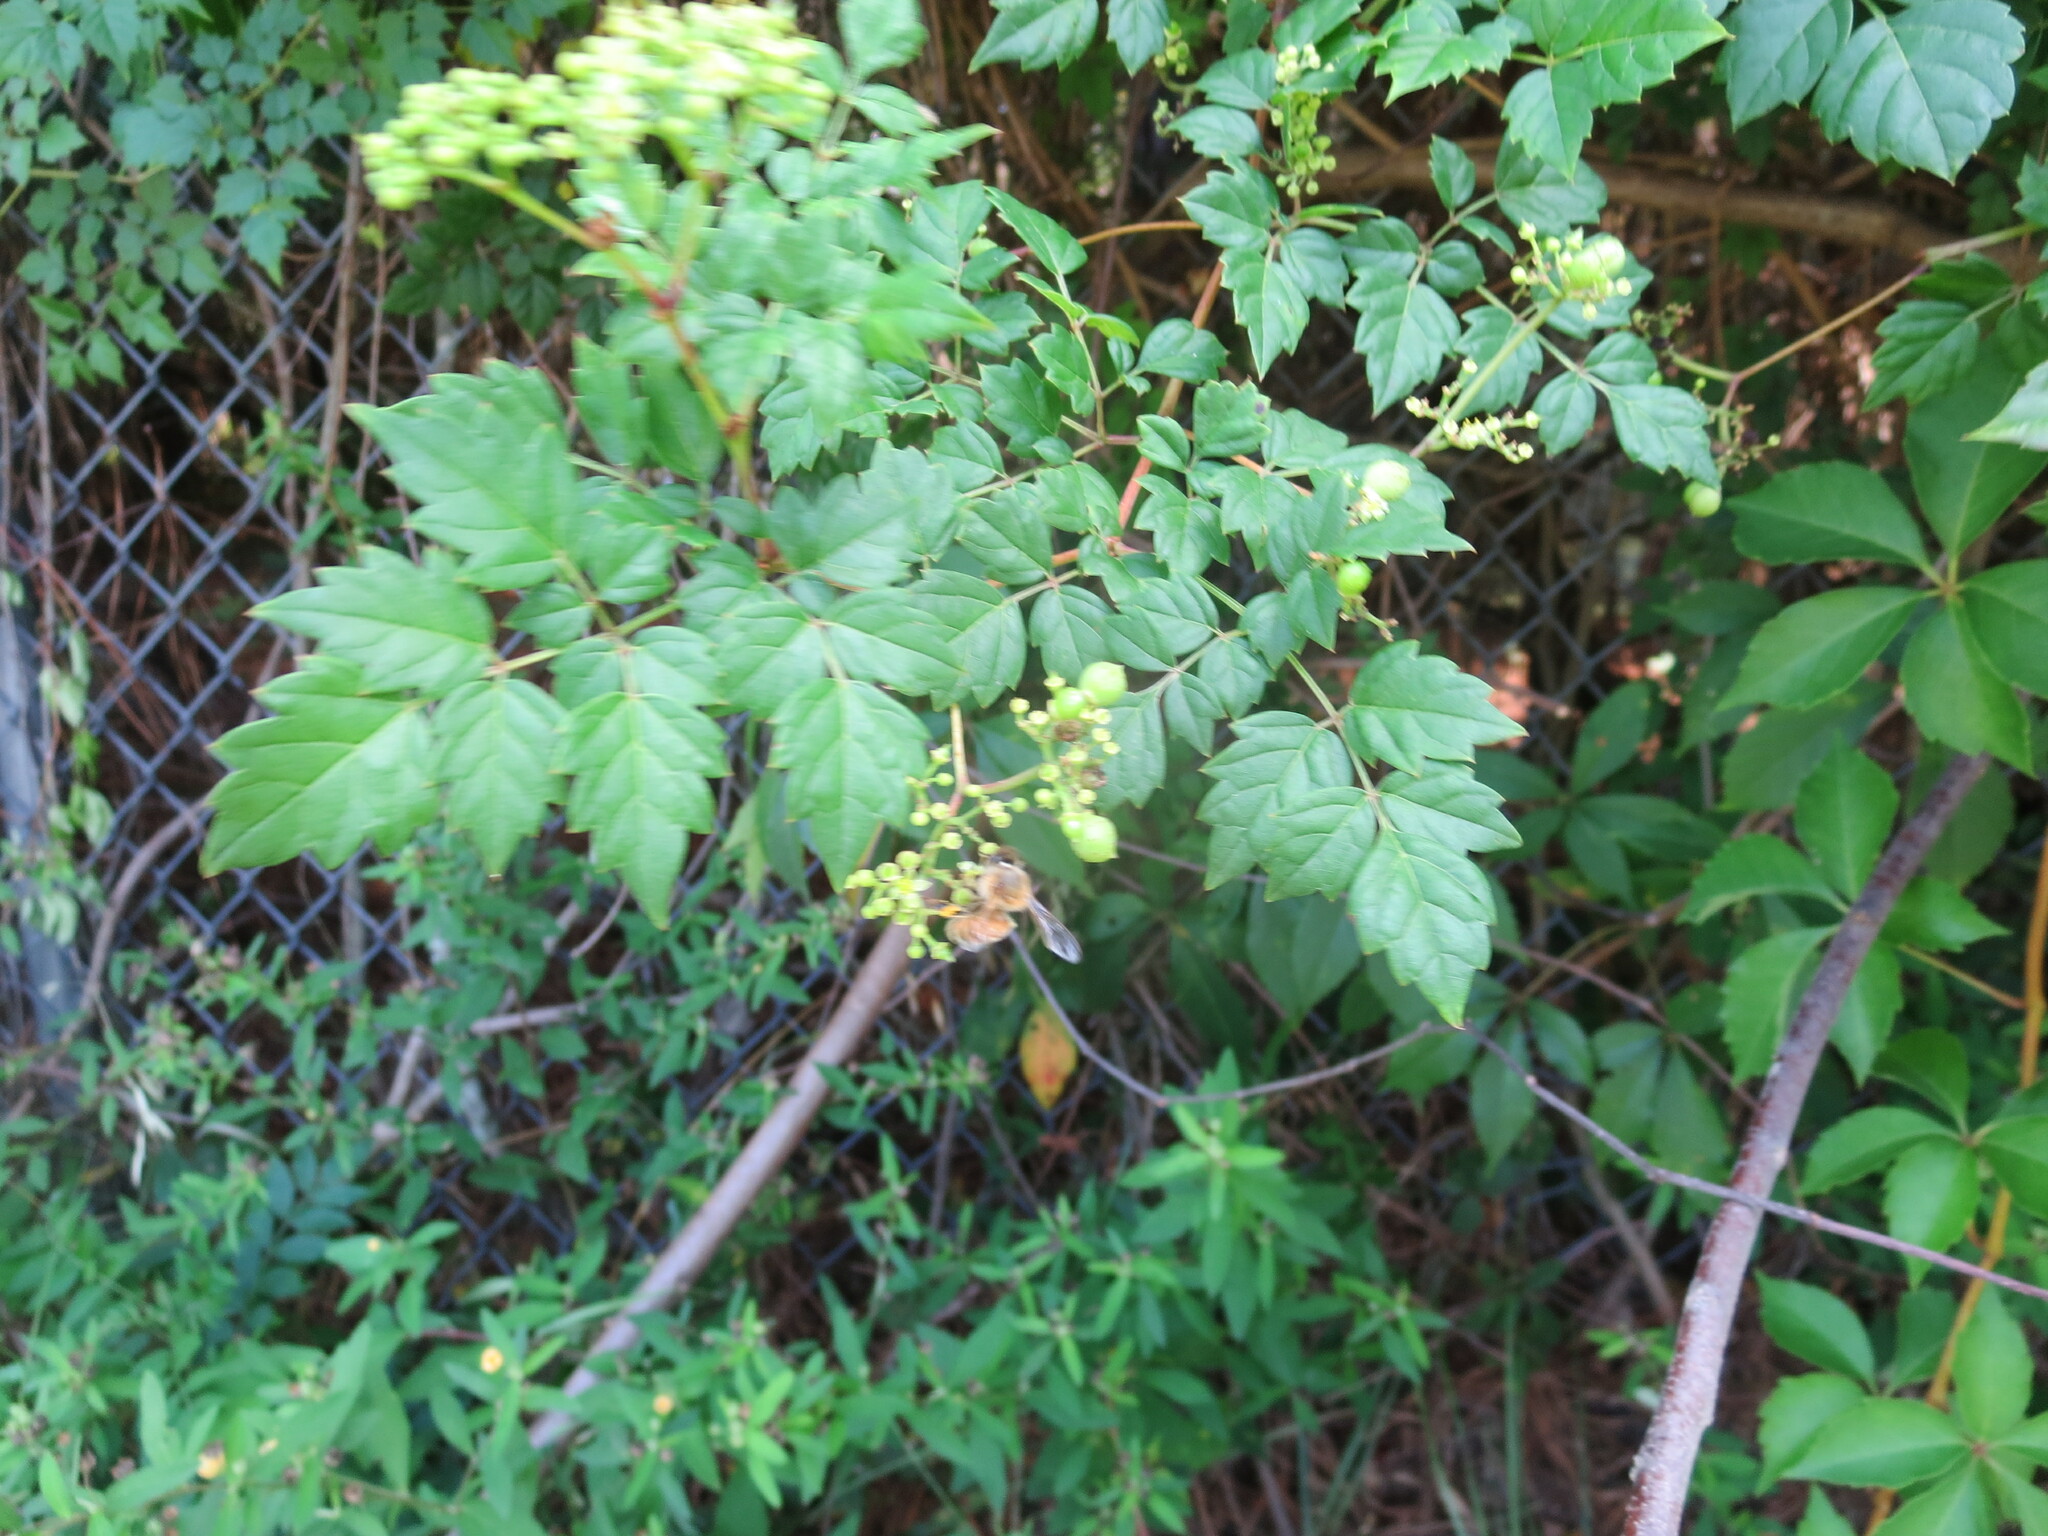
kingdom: Plantae
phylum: Tracheophyta
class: Magnoliopsida
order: Vitales
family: Vitaceae
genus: Nekemias
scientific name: Nekemias arborea
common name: Peppervine
